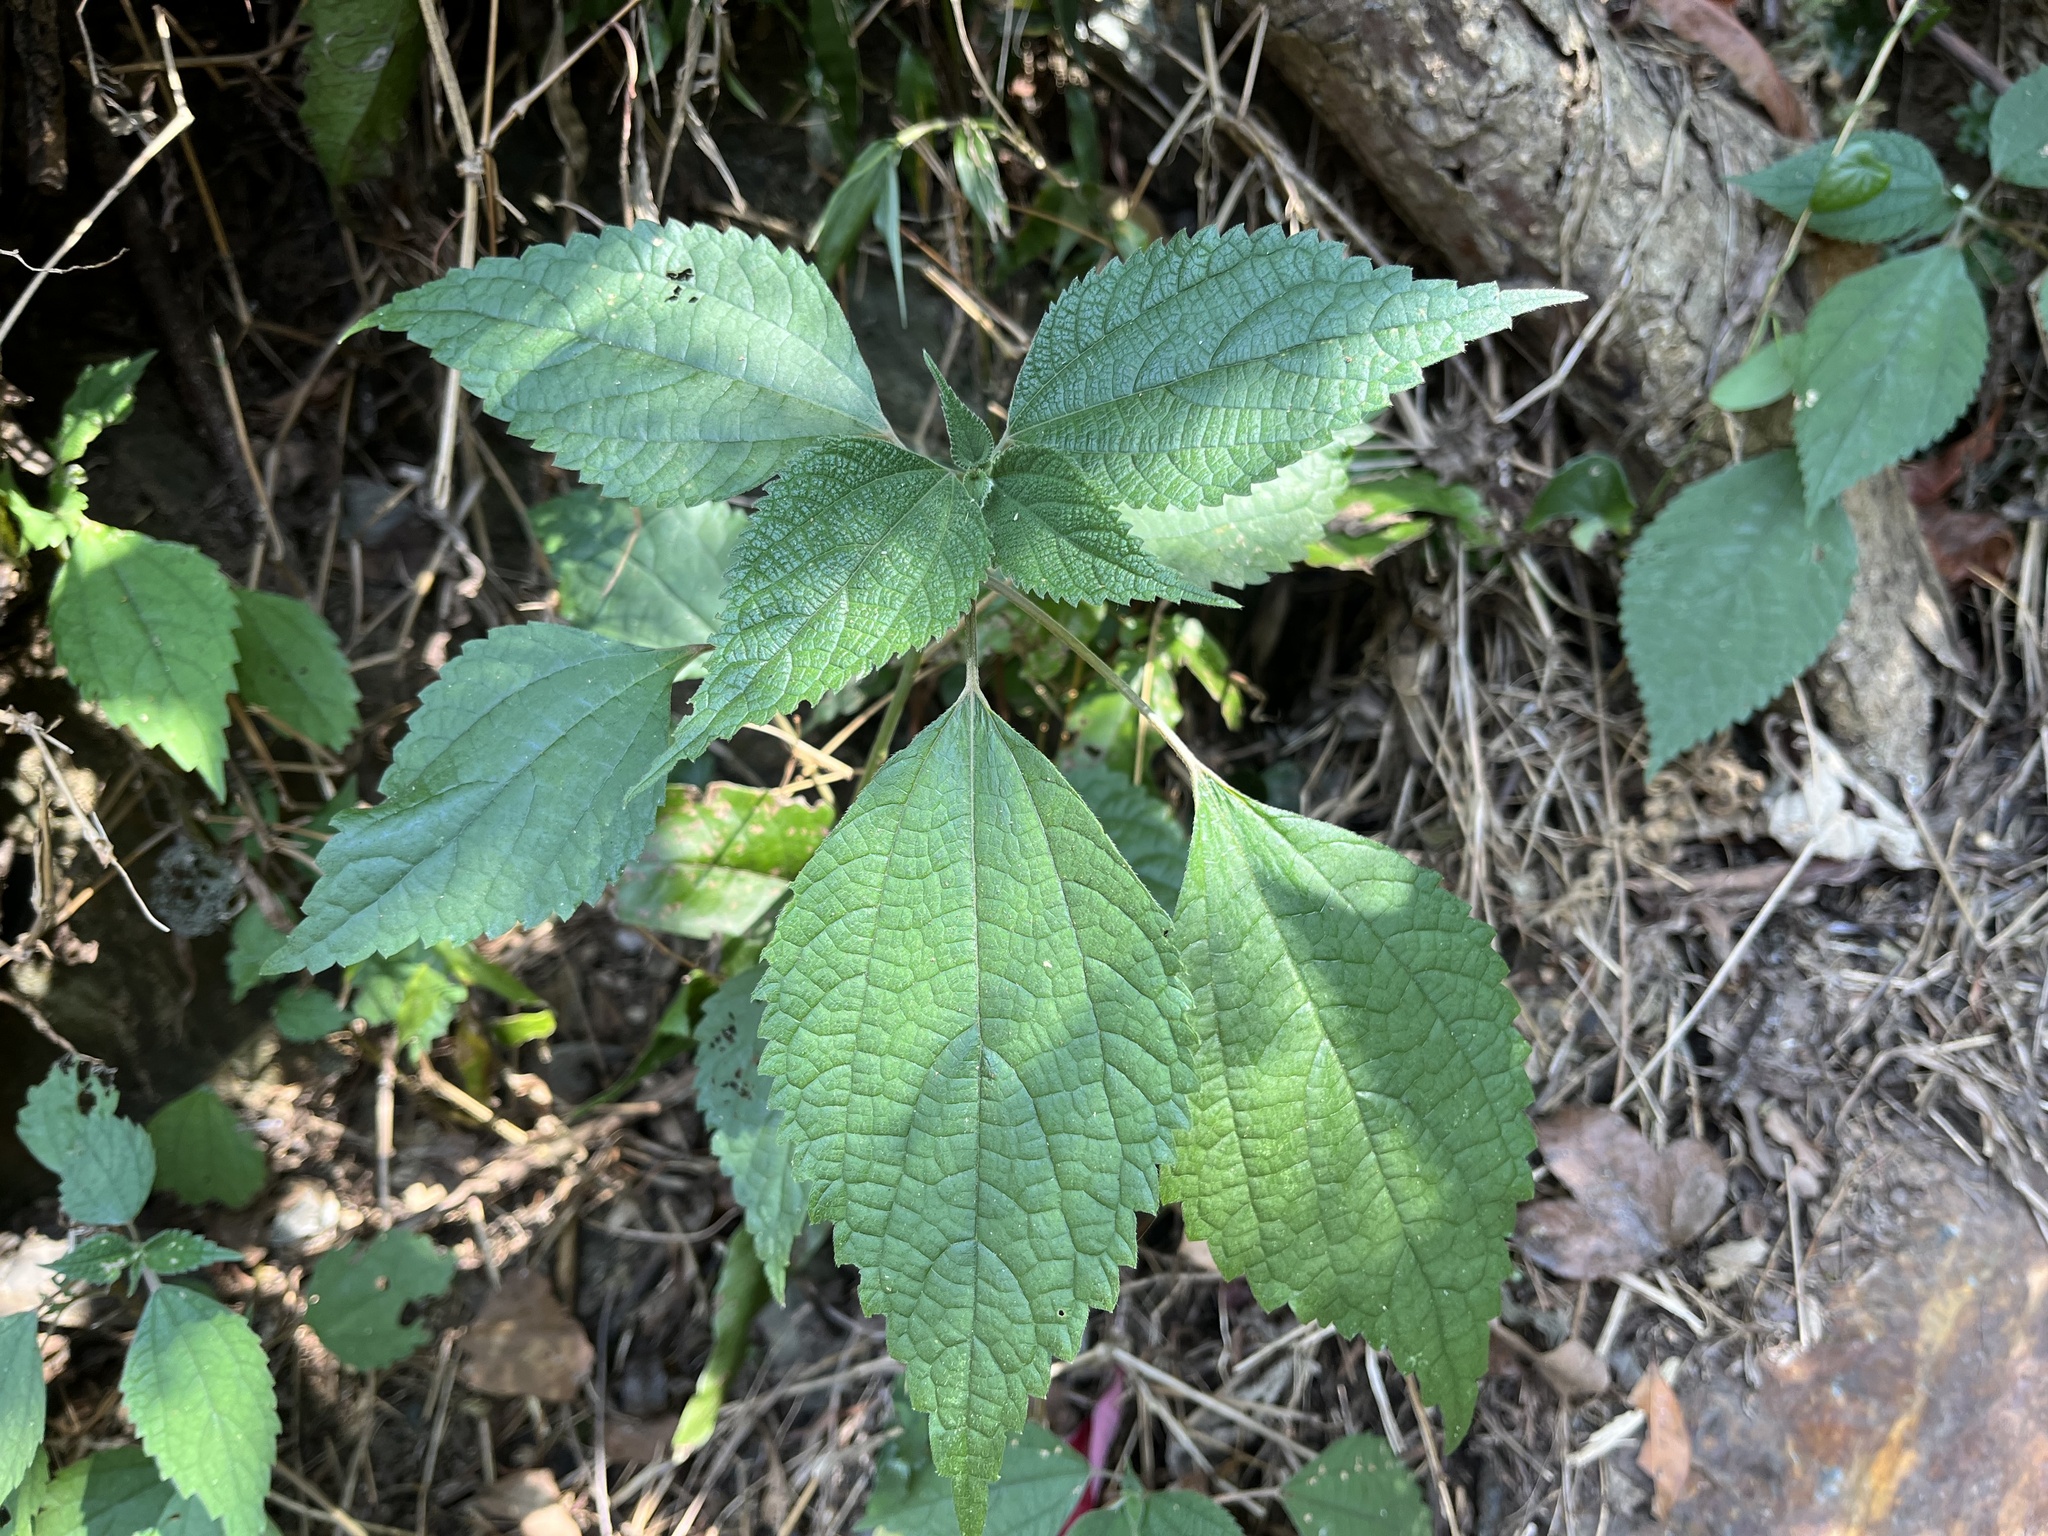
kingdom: Plantae
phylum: Tracheophyta
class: Magnoliopsida
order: Rosales
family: Urticaceae
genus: Boehmeria
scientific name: Boehmeria nivea
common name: Ramie chinese grass
